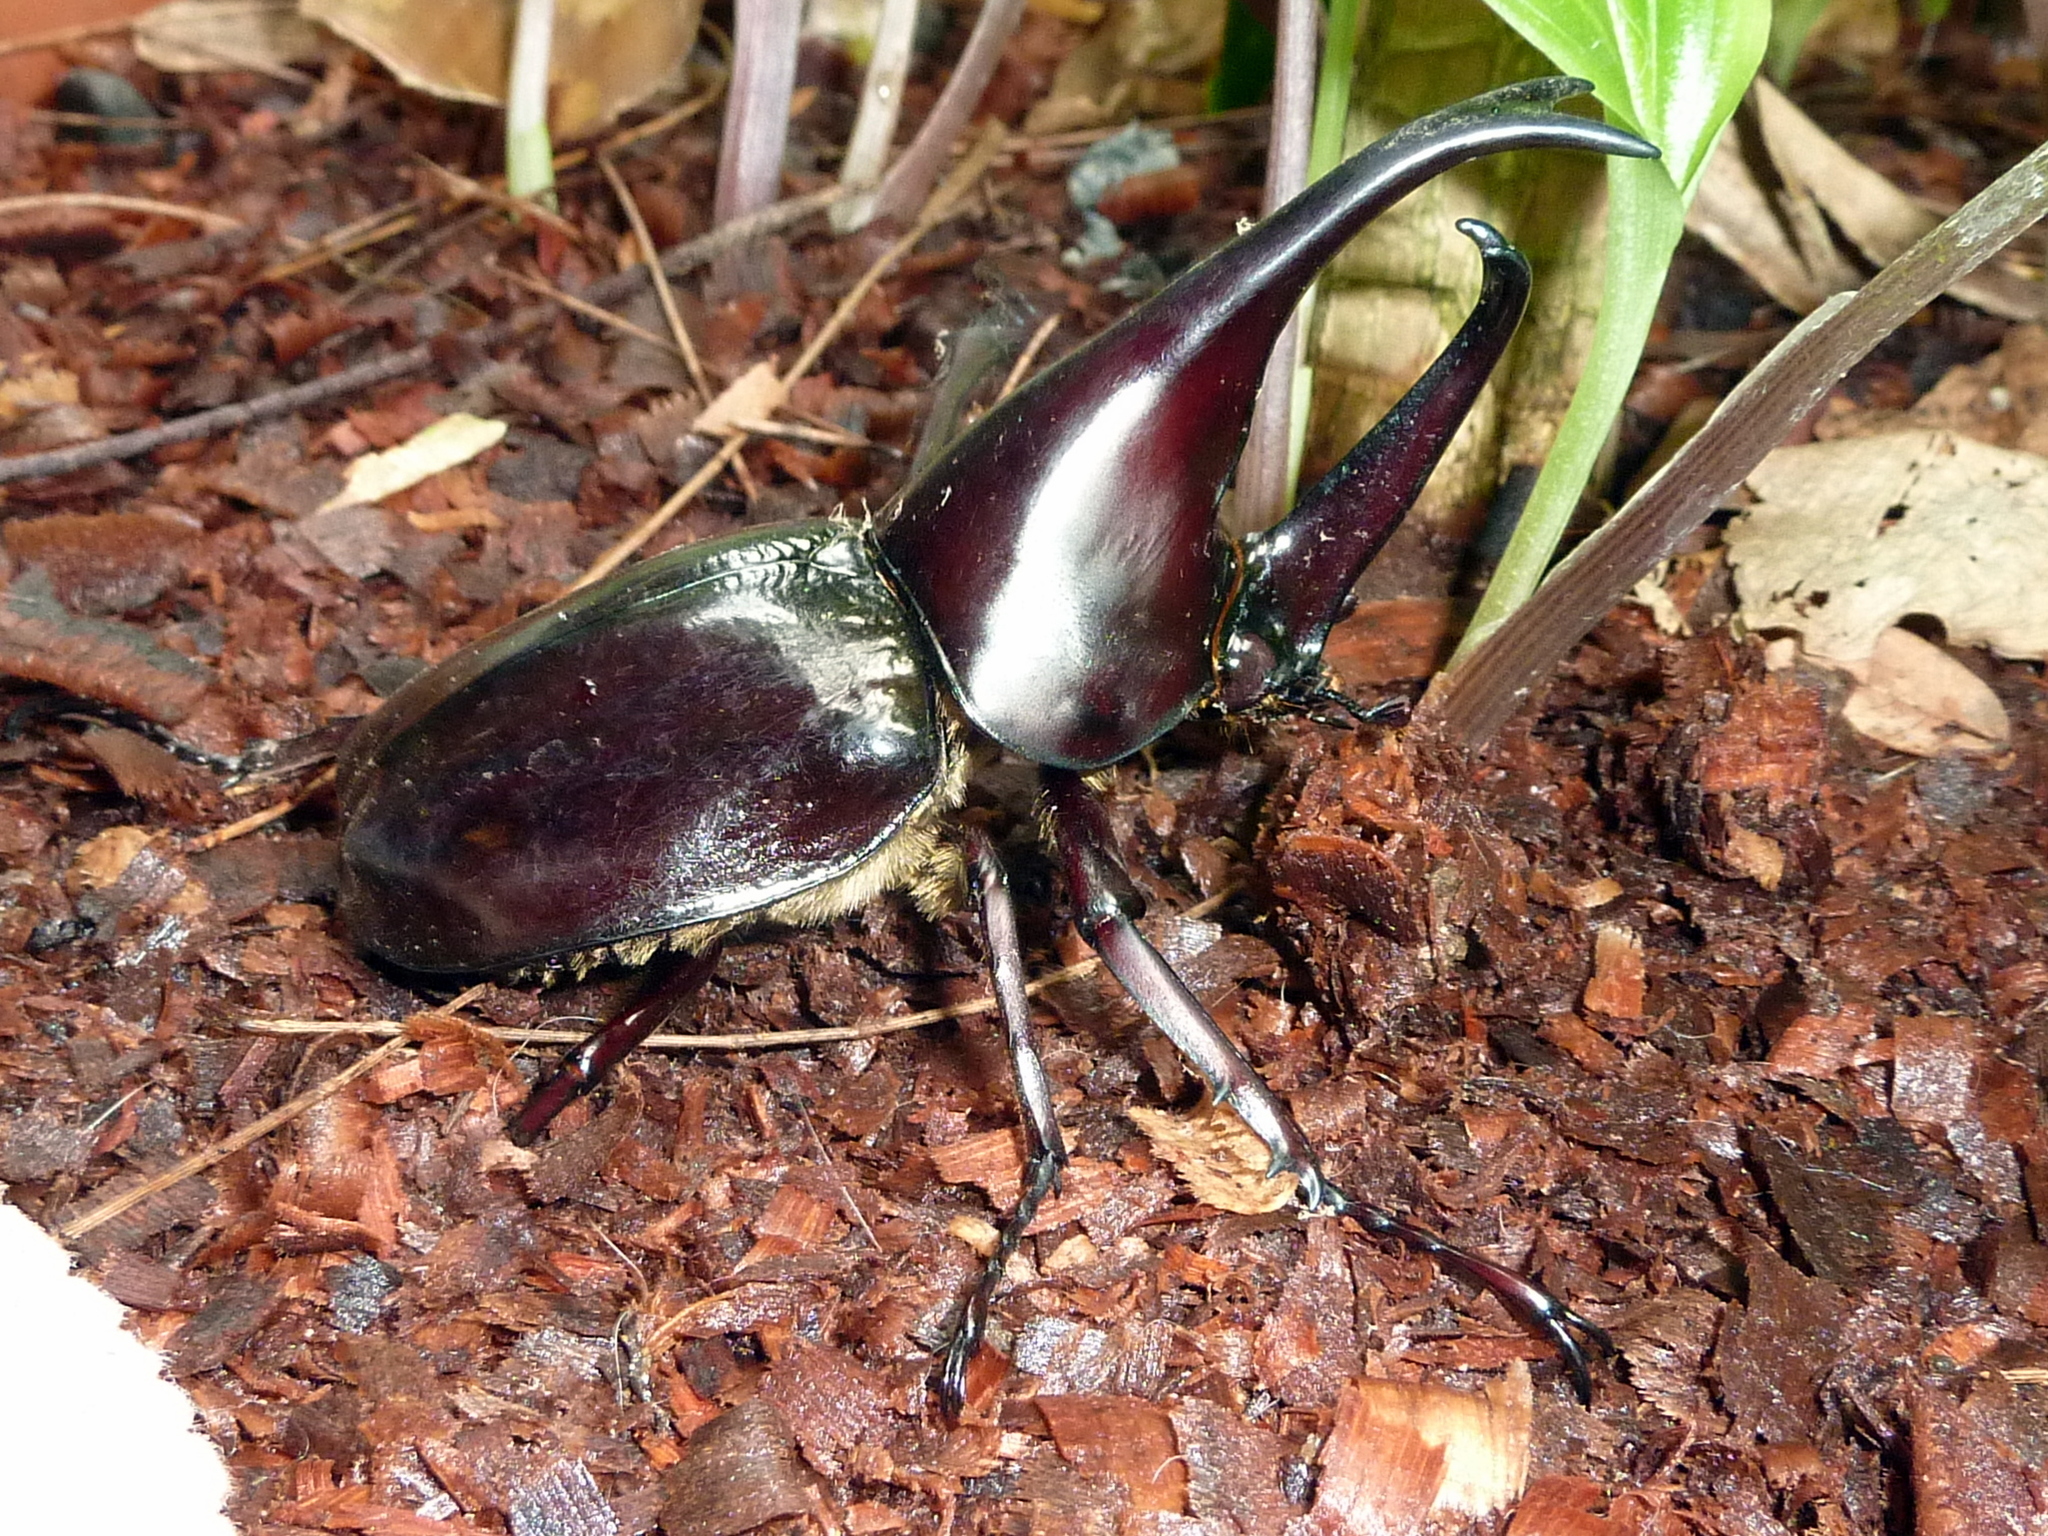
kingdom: Animalia
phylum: Arthropoda
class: Insecta
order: Coleoptera
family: Scarabaeidae
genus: Xylotrupes
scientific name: Xylotrupes carinulus
